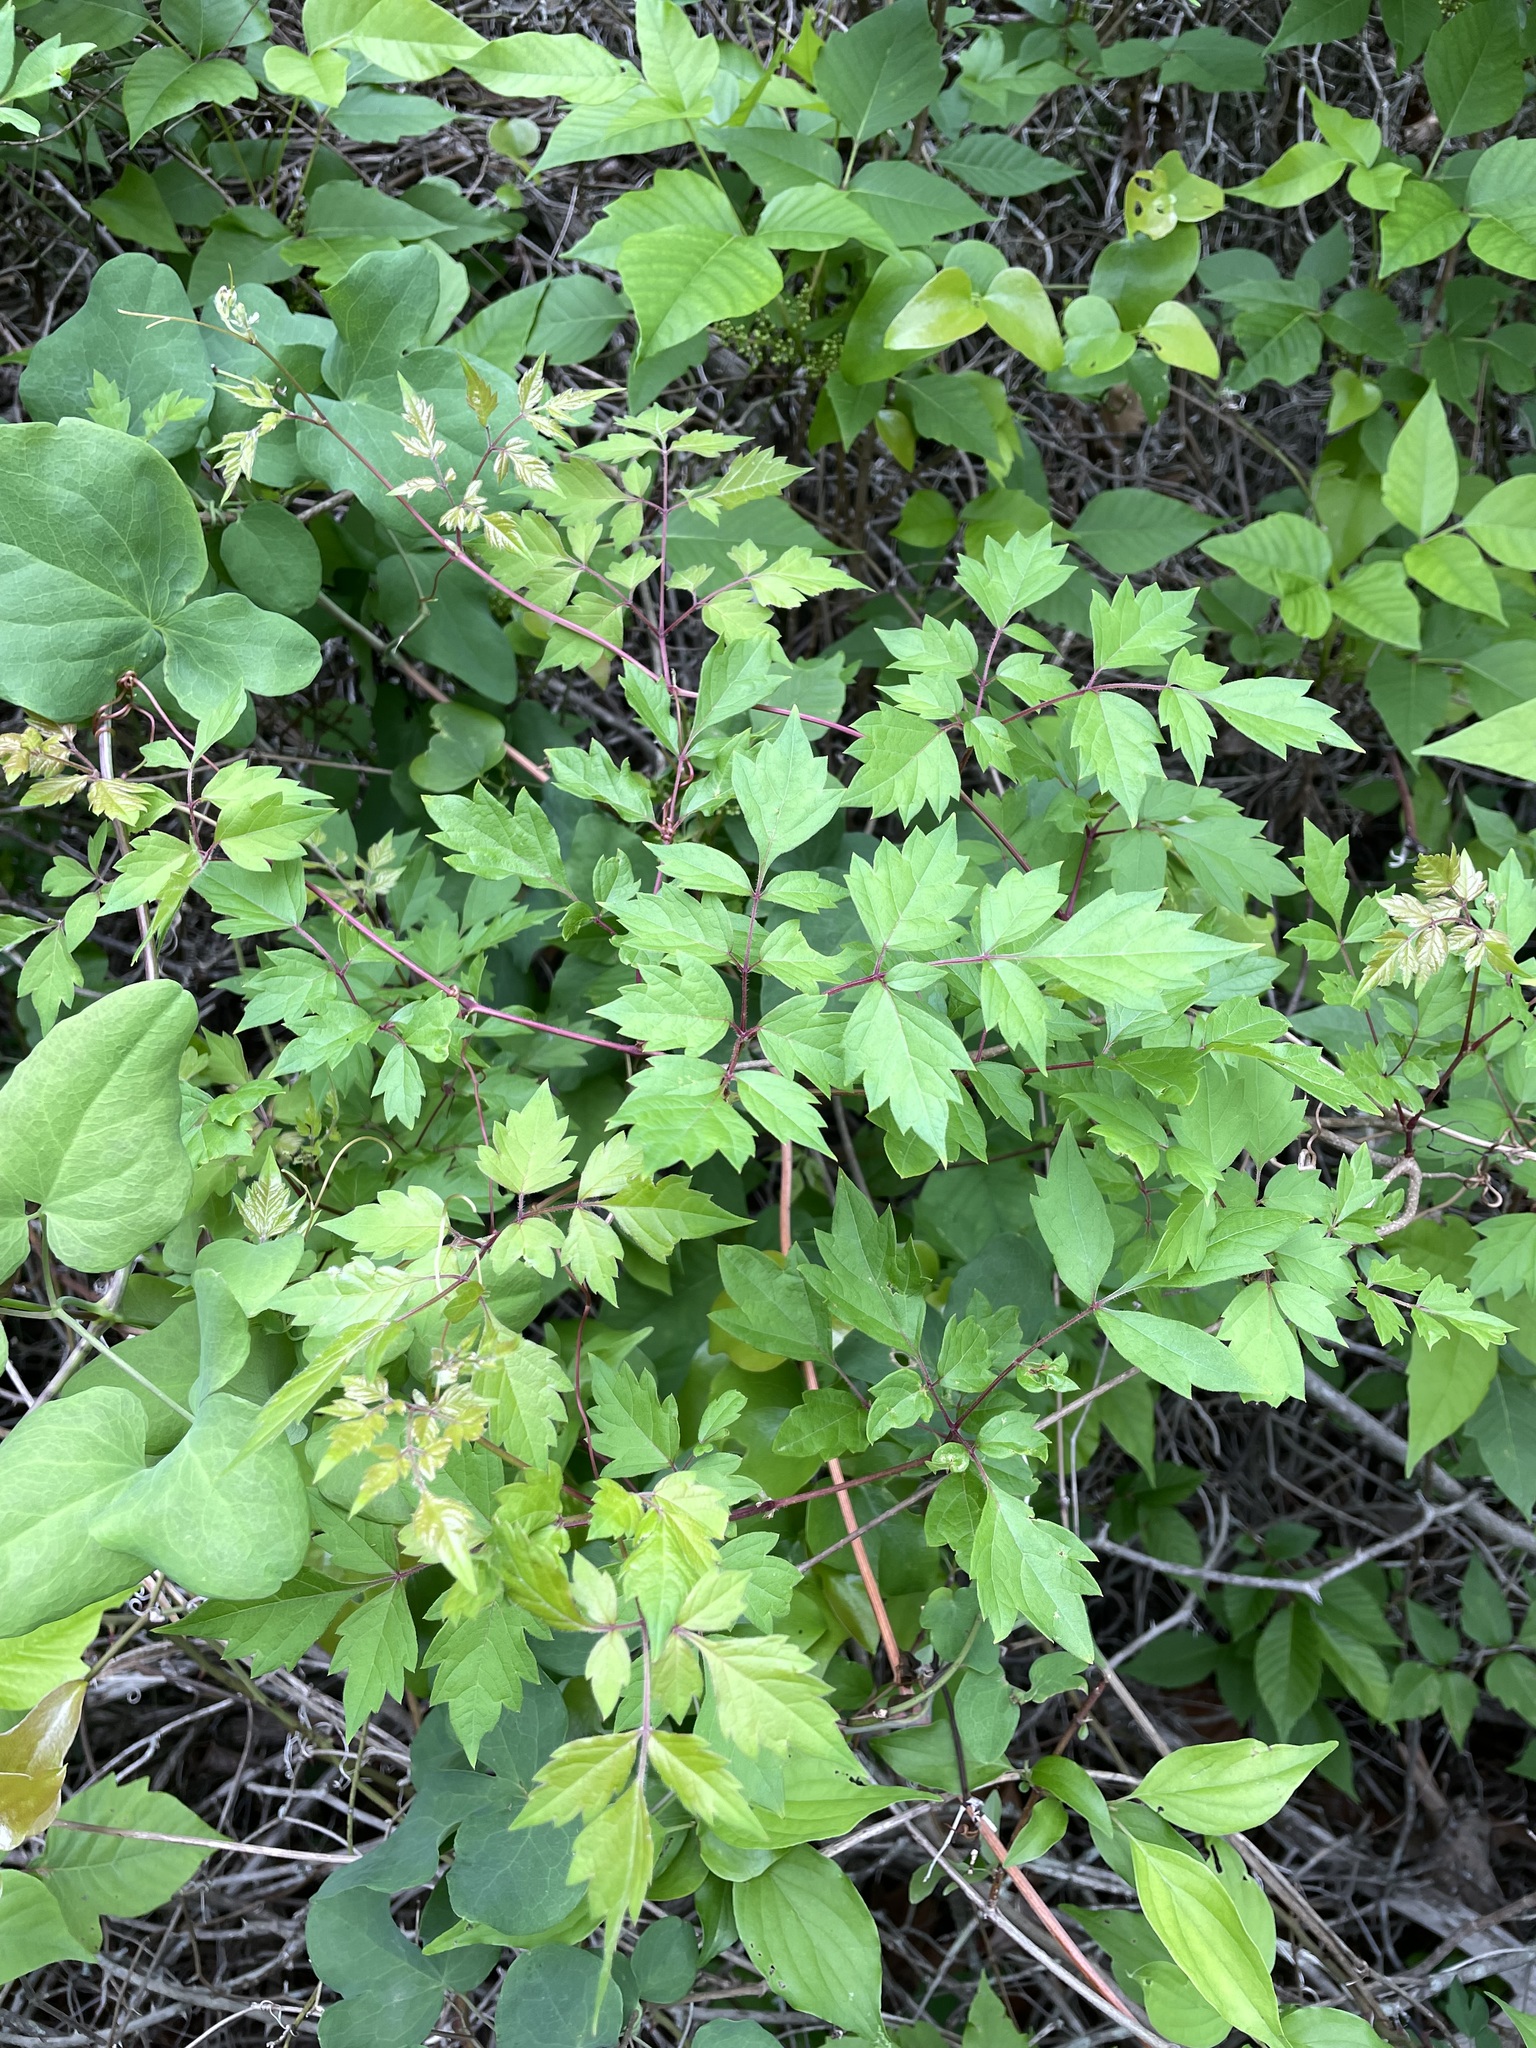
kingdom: Plantae
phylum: Tracheophyta
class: Magnoliopsida
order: Vitales
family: Vitaceae
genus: Nekemias
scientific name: Nekemias arborea
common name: Peppervine
